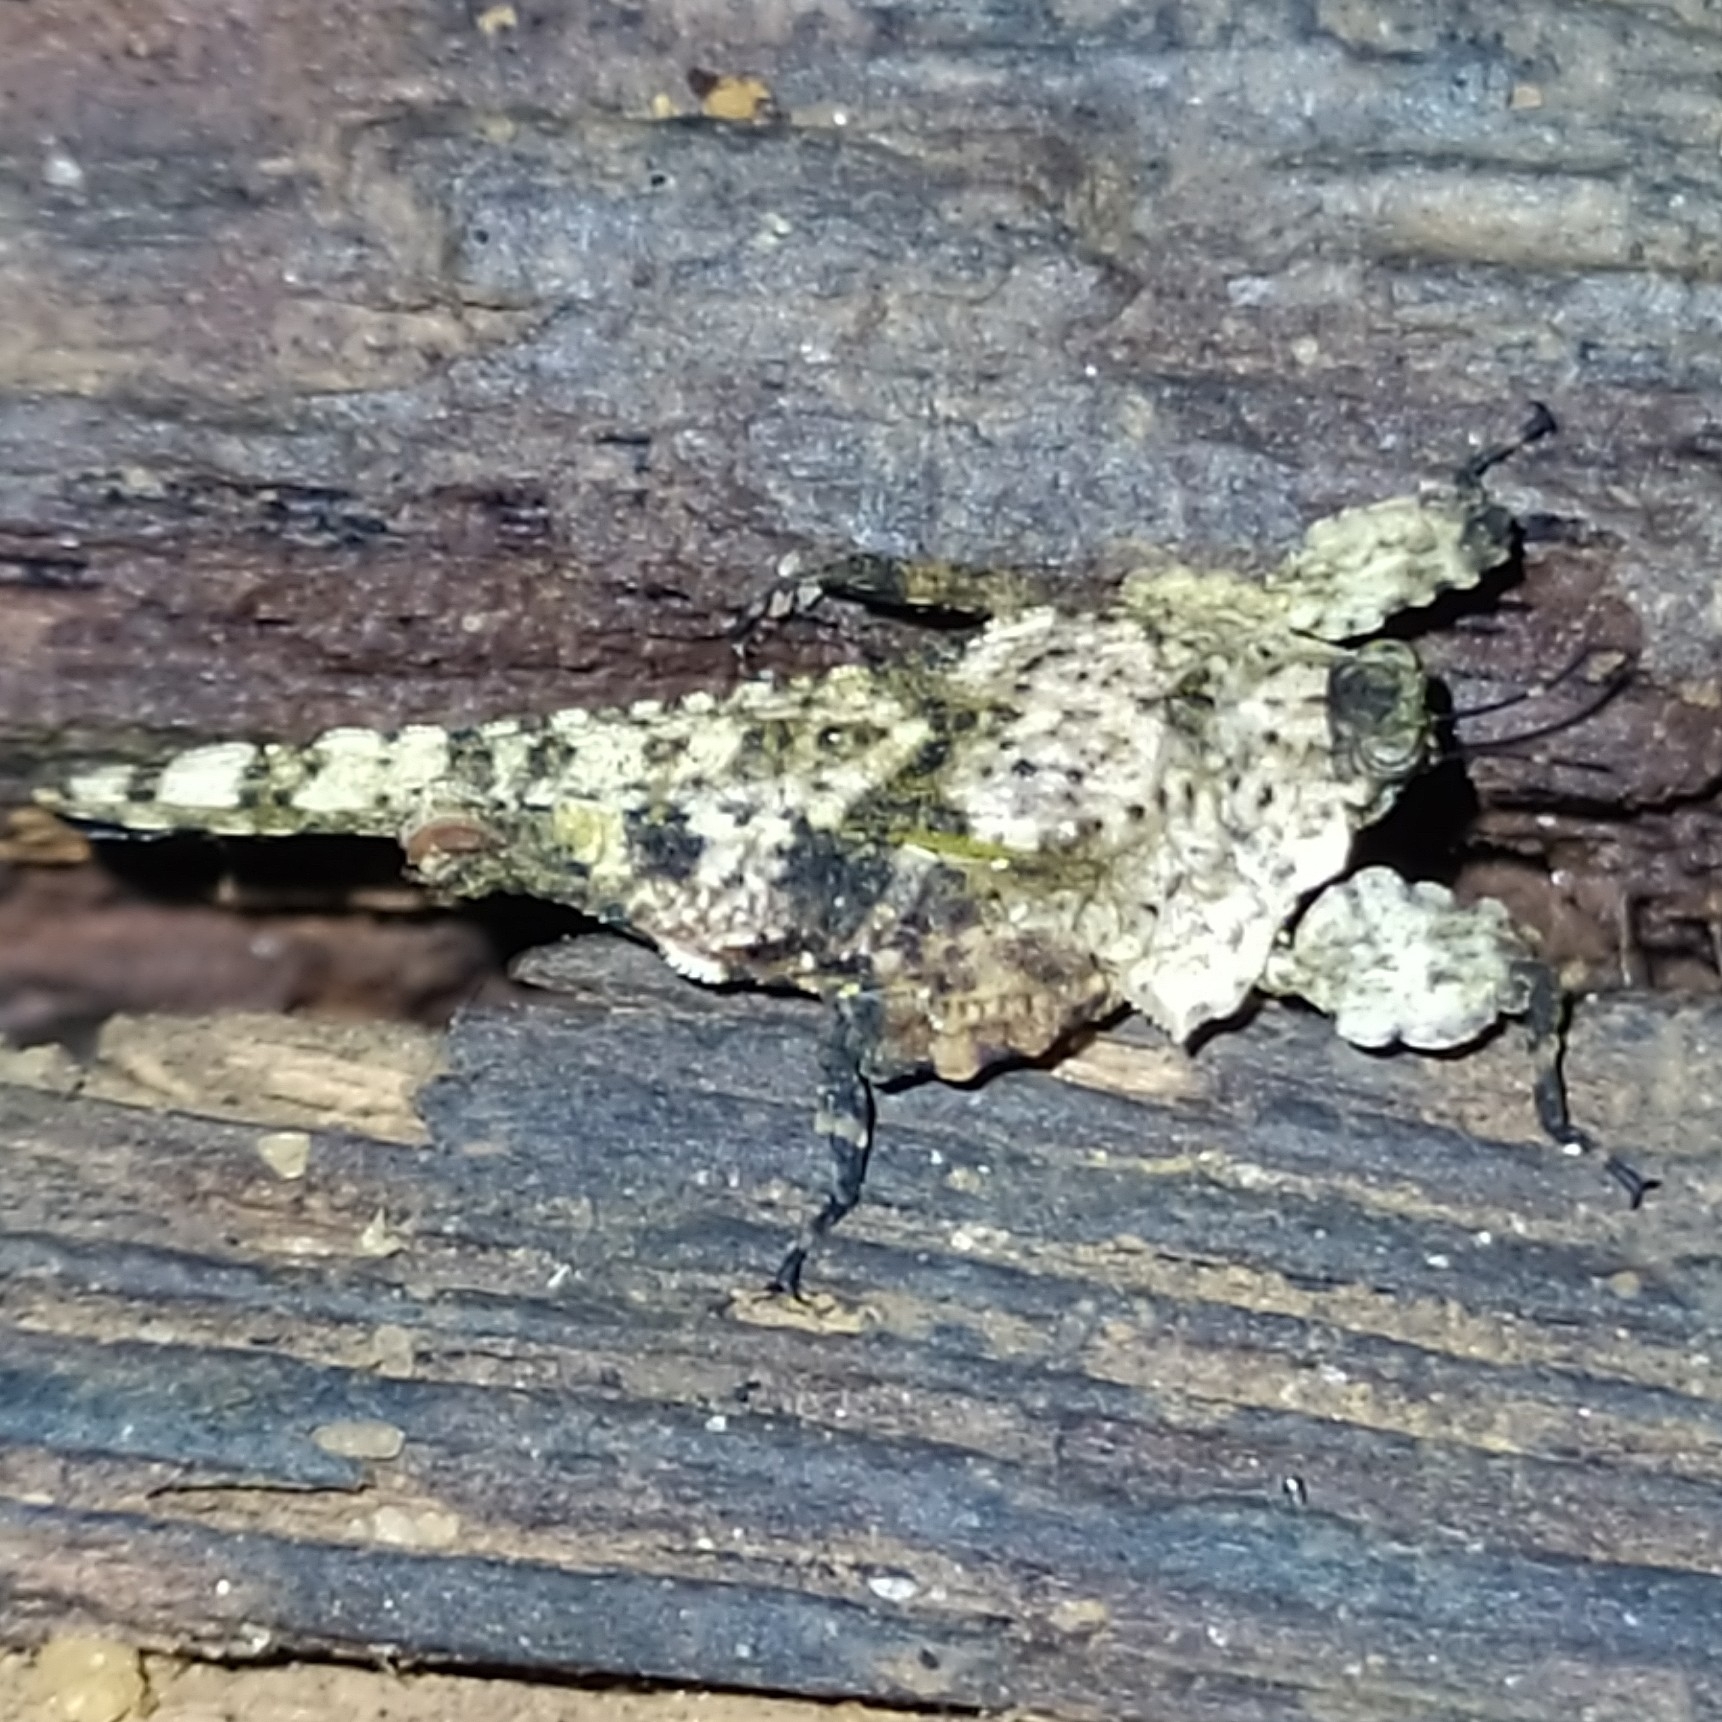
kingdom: Animalia
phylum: Arthropoda
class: Insecta
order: Orthoptera
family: Tetrigidae
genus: Amorphopus
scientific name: Amorphopus notabilis
